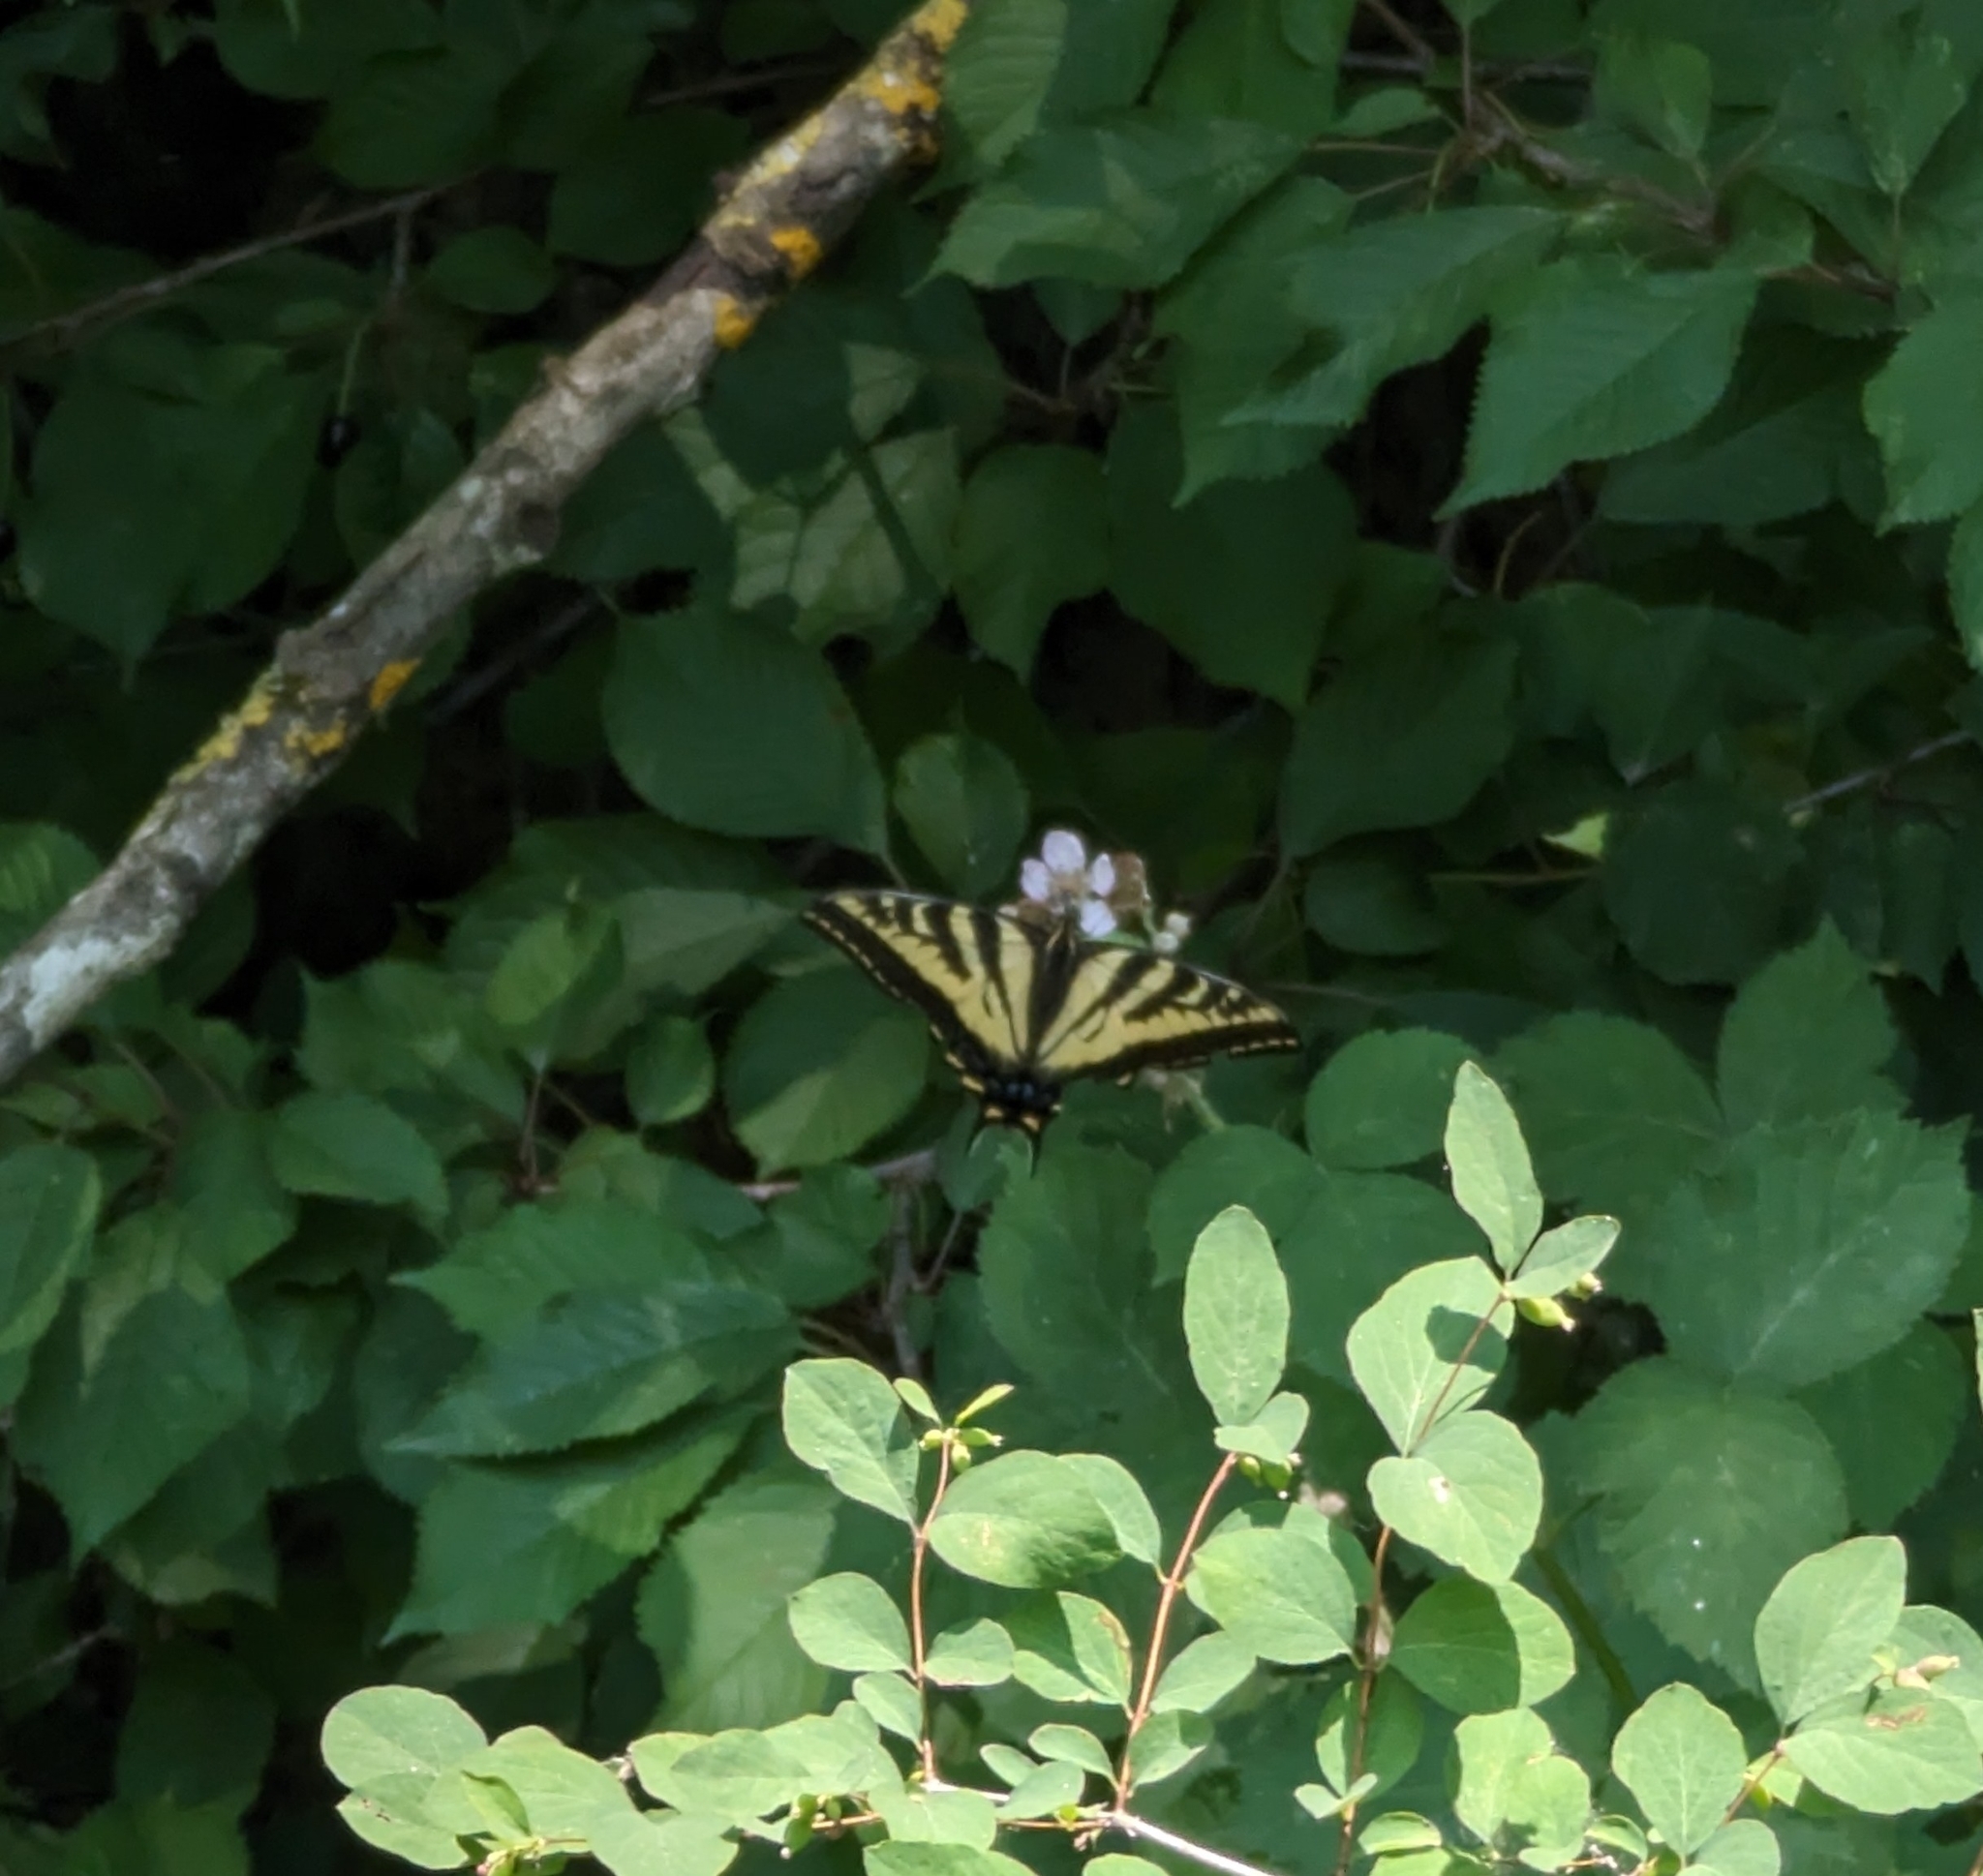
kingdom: Animalia
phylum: Arthropoda
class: Insecta
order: Lepidoptera
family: Papilionidae
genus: Papilio
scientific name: Papilio rutulus
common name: Western tiger swallowtail
